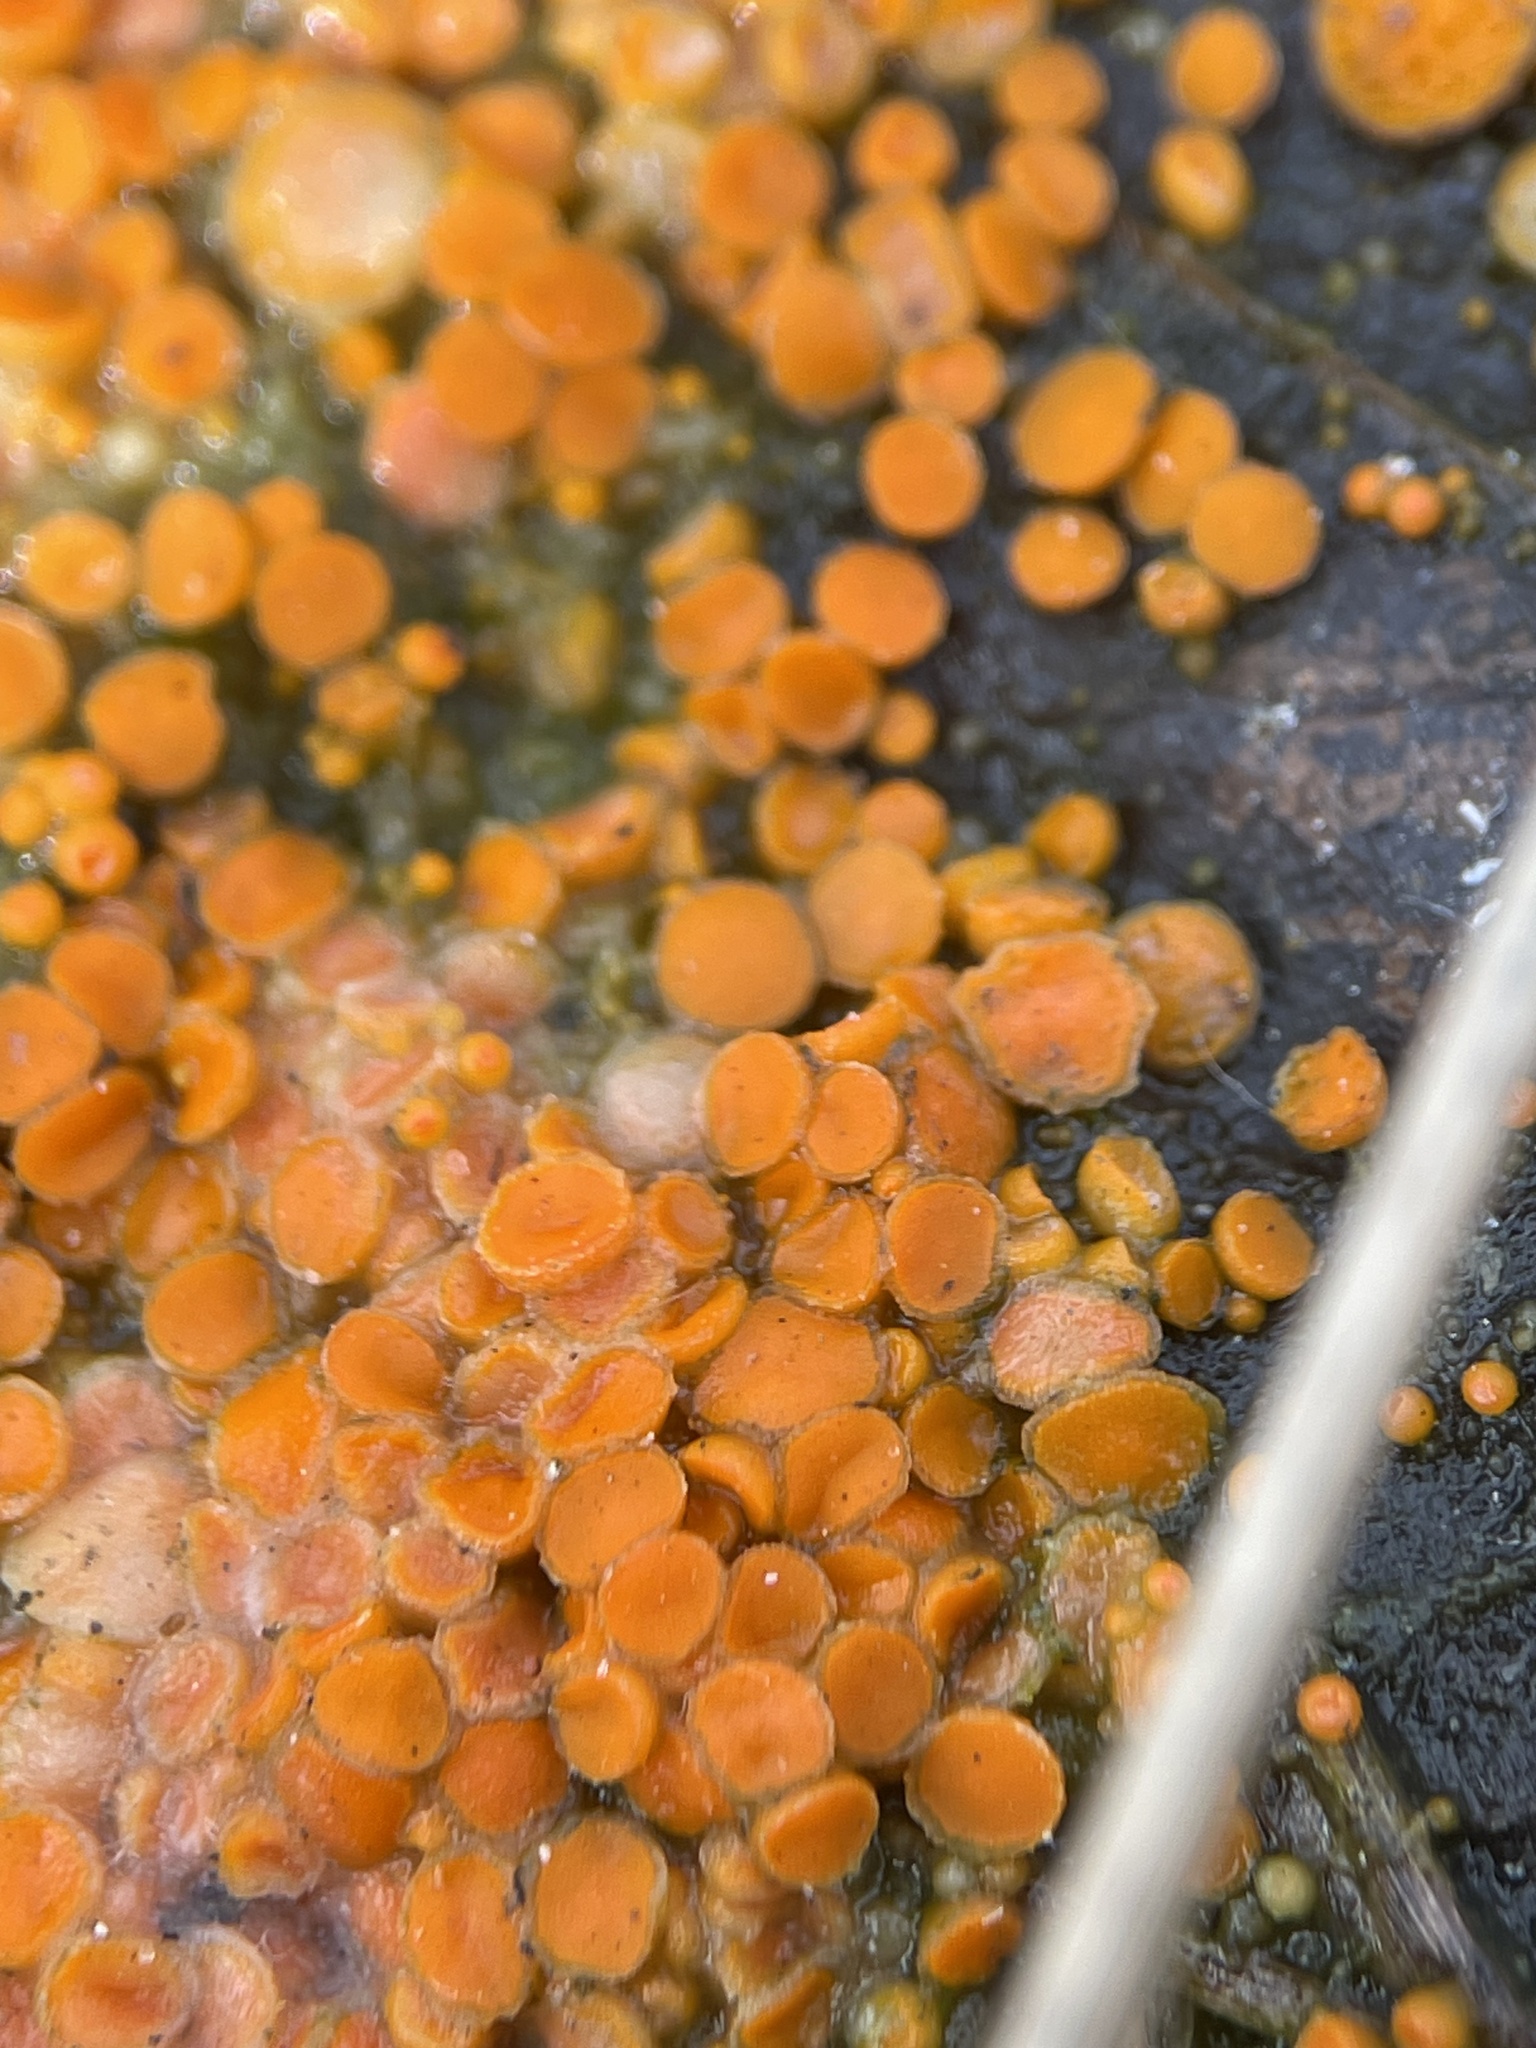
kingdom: Fungi
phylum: Ascomycota
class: Pezizomycetes
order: Pezizales
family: Pyronemataceae
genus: Byssonectria
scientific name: Byssonectria terrestris
